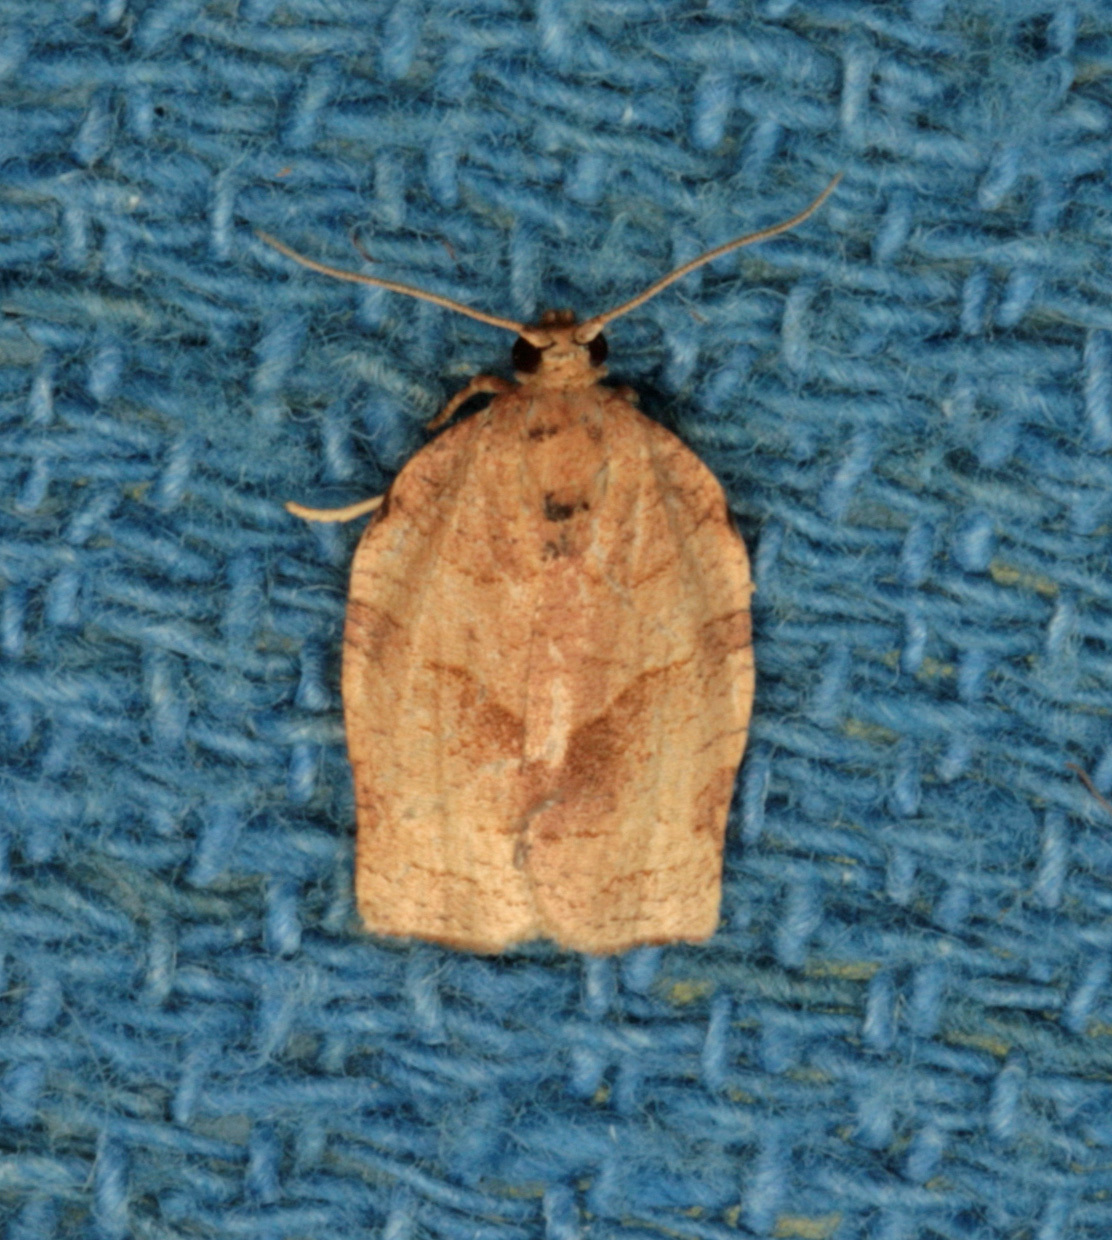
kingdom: Animalia
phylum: Arthropoda
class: Insecta
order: Lepidoptera
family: Tortricidae
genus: Choristoneura
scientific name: Choristoneura rosaceana
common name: Oblique-banded leafroller moth
